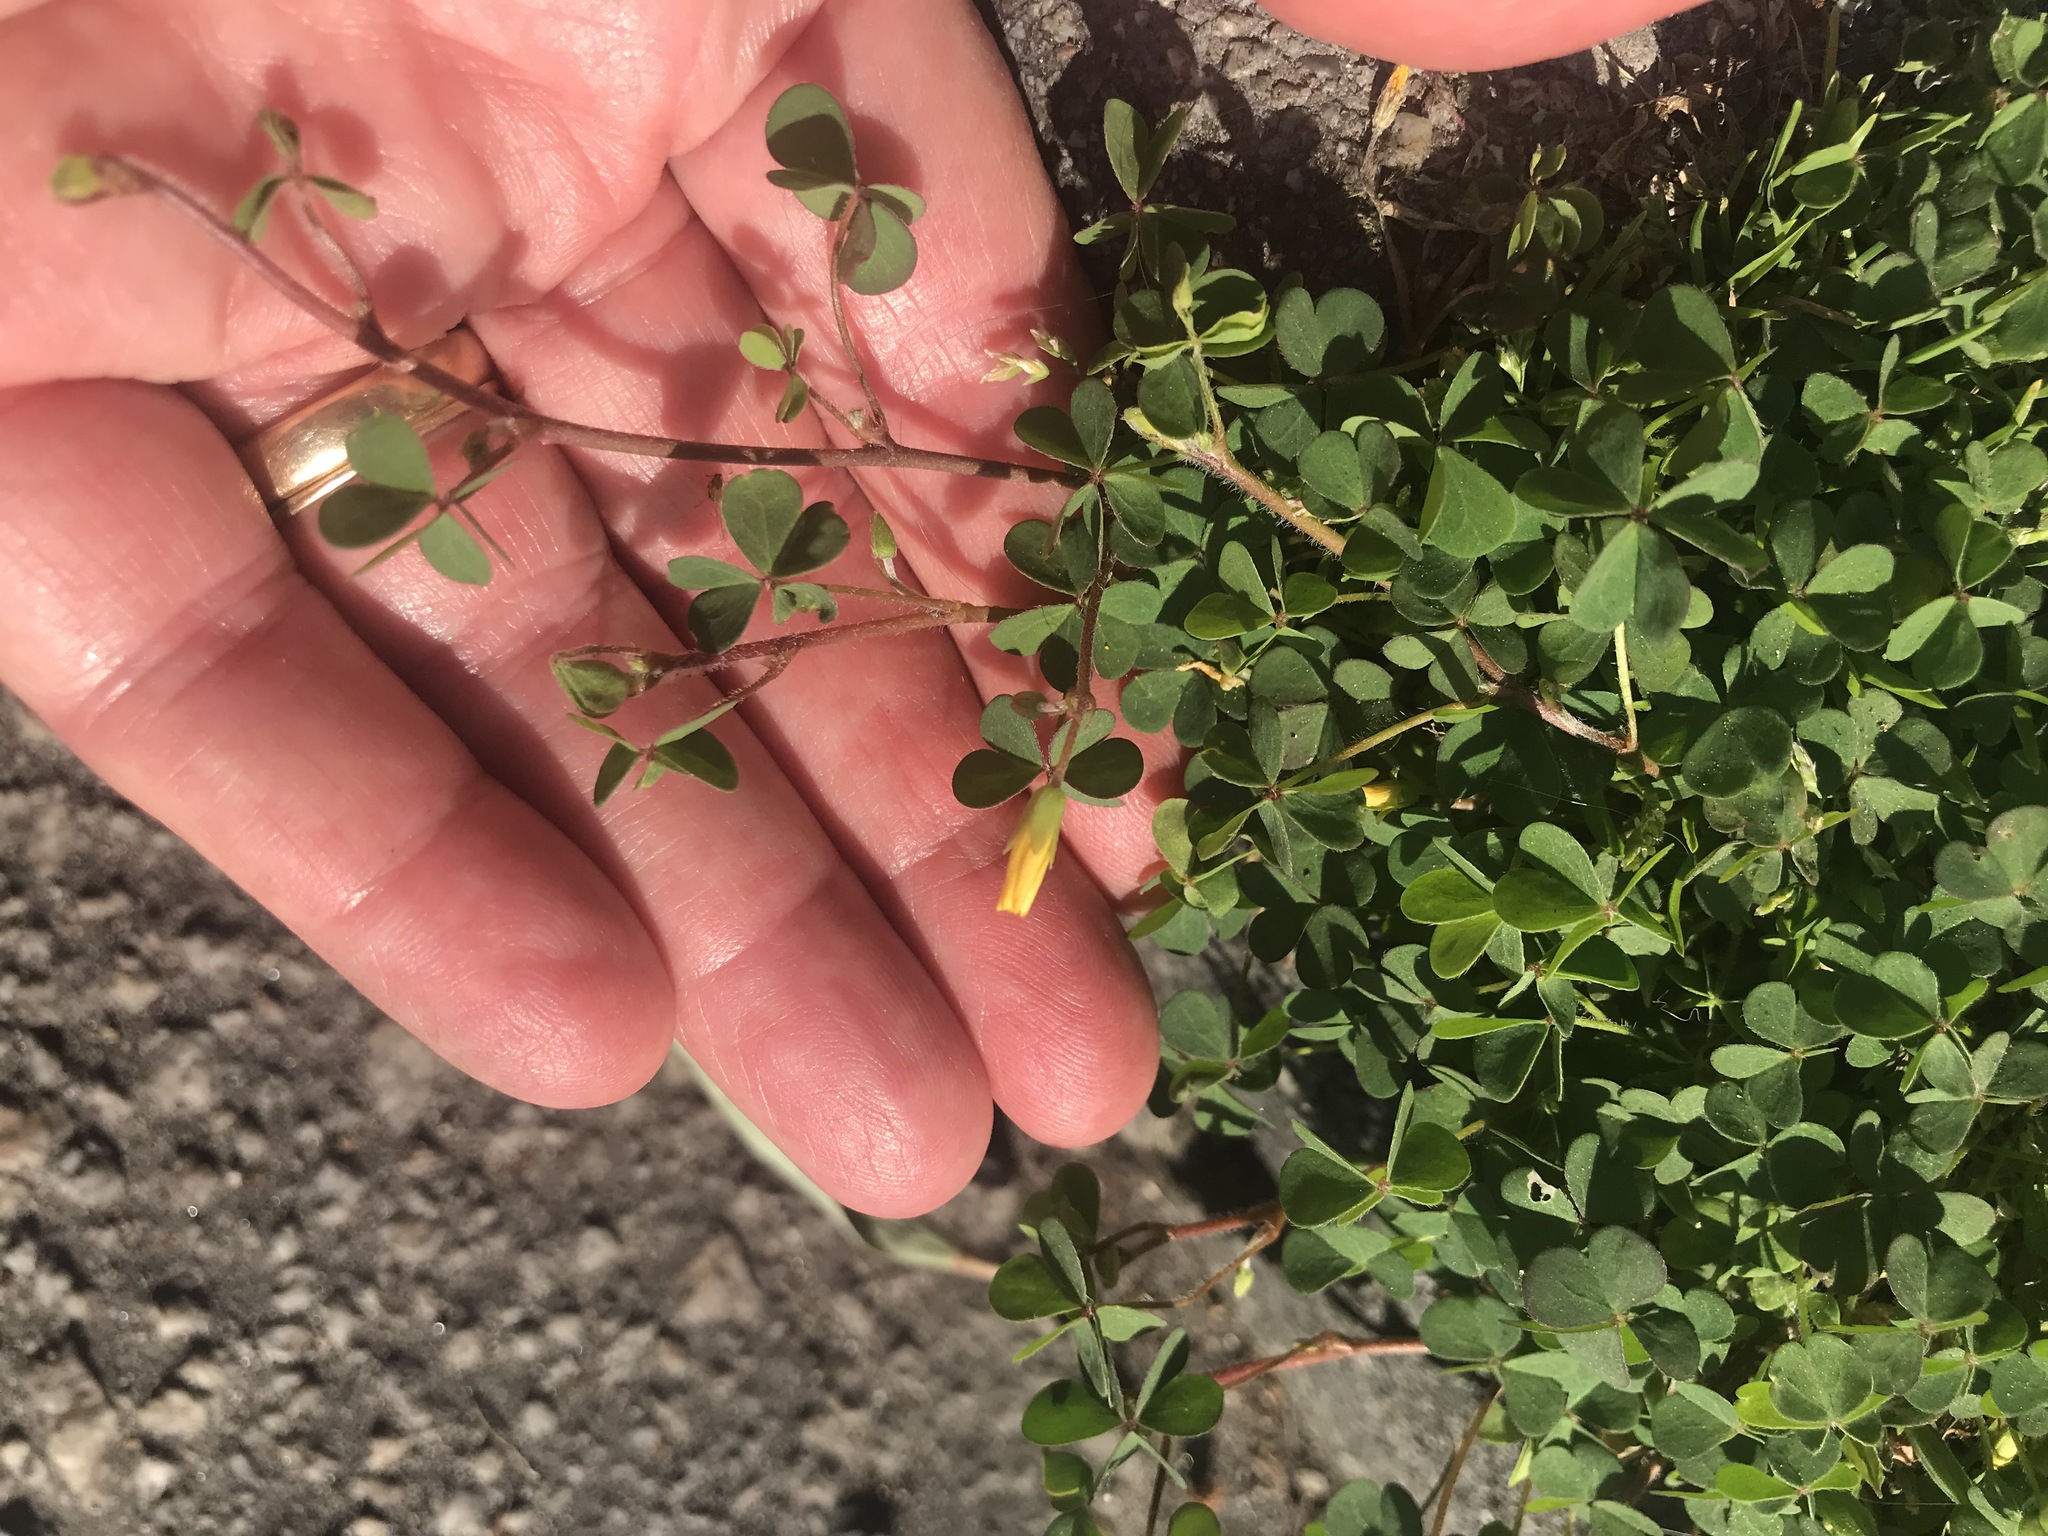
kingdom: Plantae
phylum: Tracheophyta
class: Magnoliopsida
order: Oxalidales
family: Oxalidaceae
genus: Oxalis
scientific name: Oxalis corniculata
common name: Procumbent yellow-sorrel
